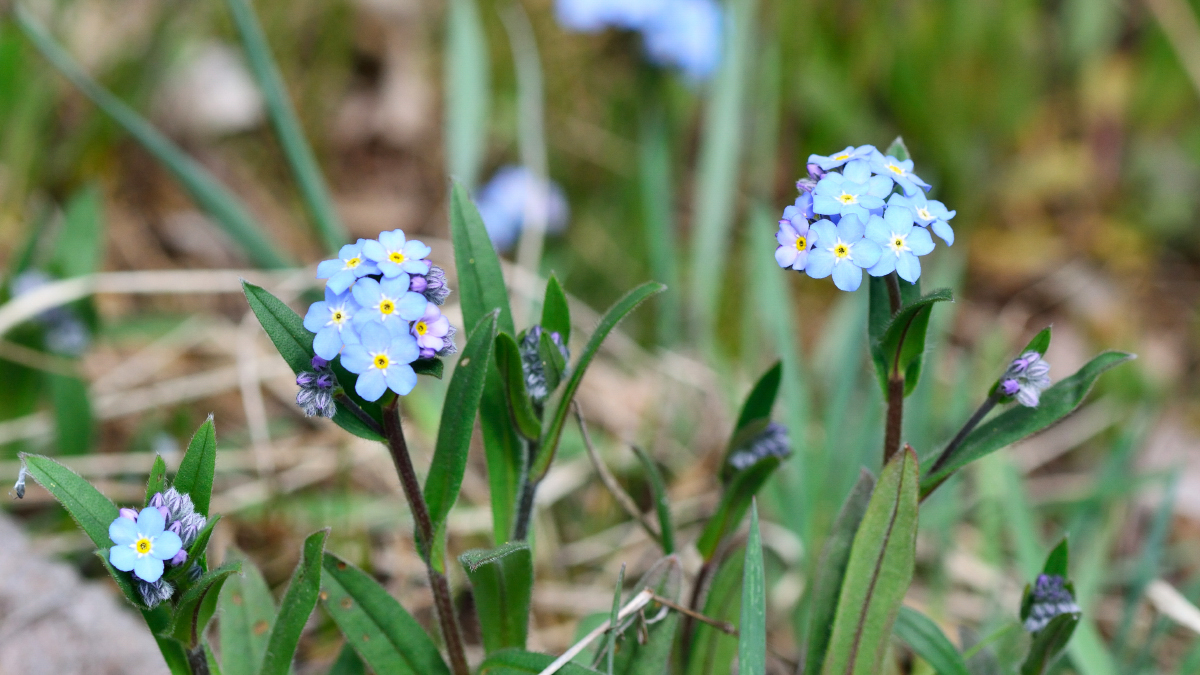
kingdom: Plantae
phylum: Tracheophyta
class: Magnoliopsida
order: Boraginales
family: Boraginaceae
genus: Myosotis
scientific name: Myosotis sylvatica
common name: Wood forget-me-not
